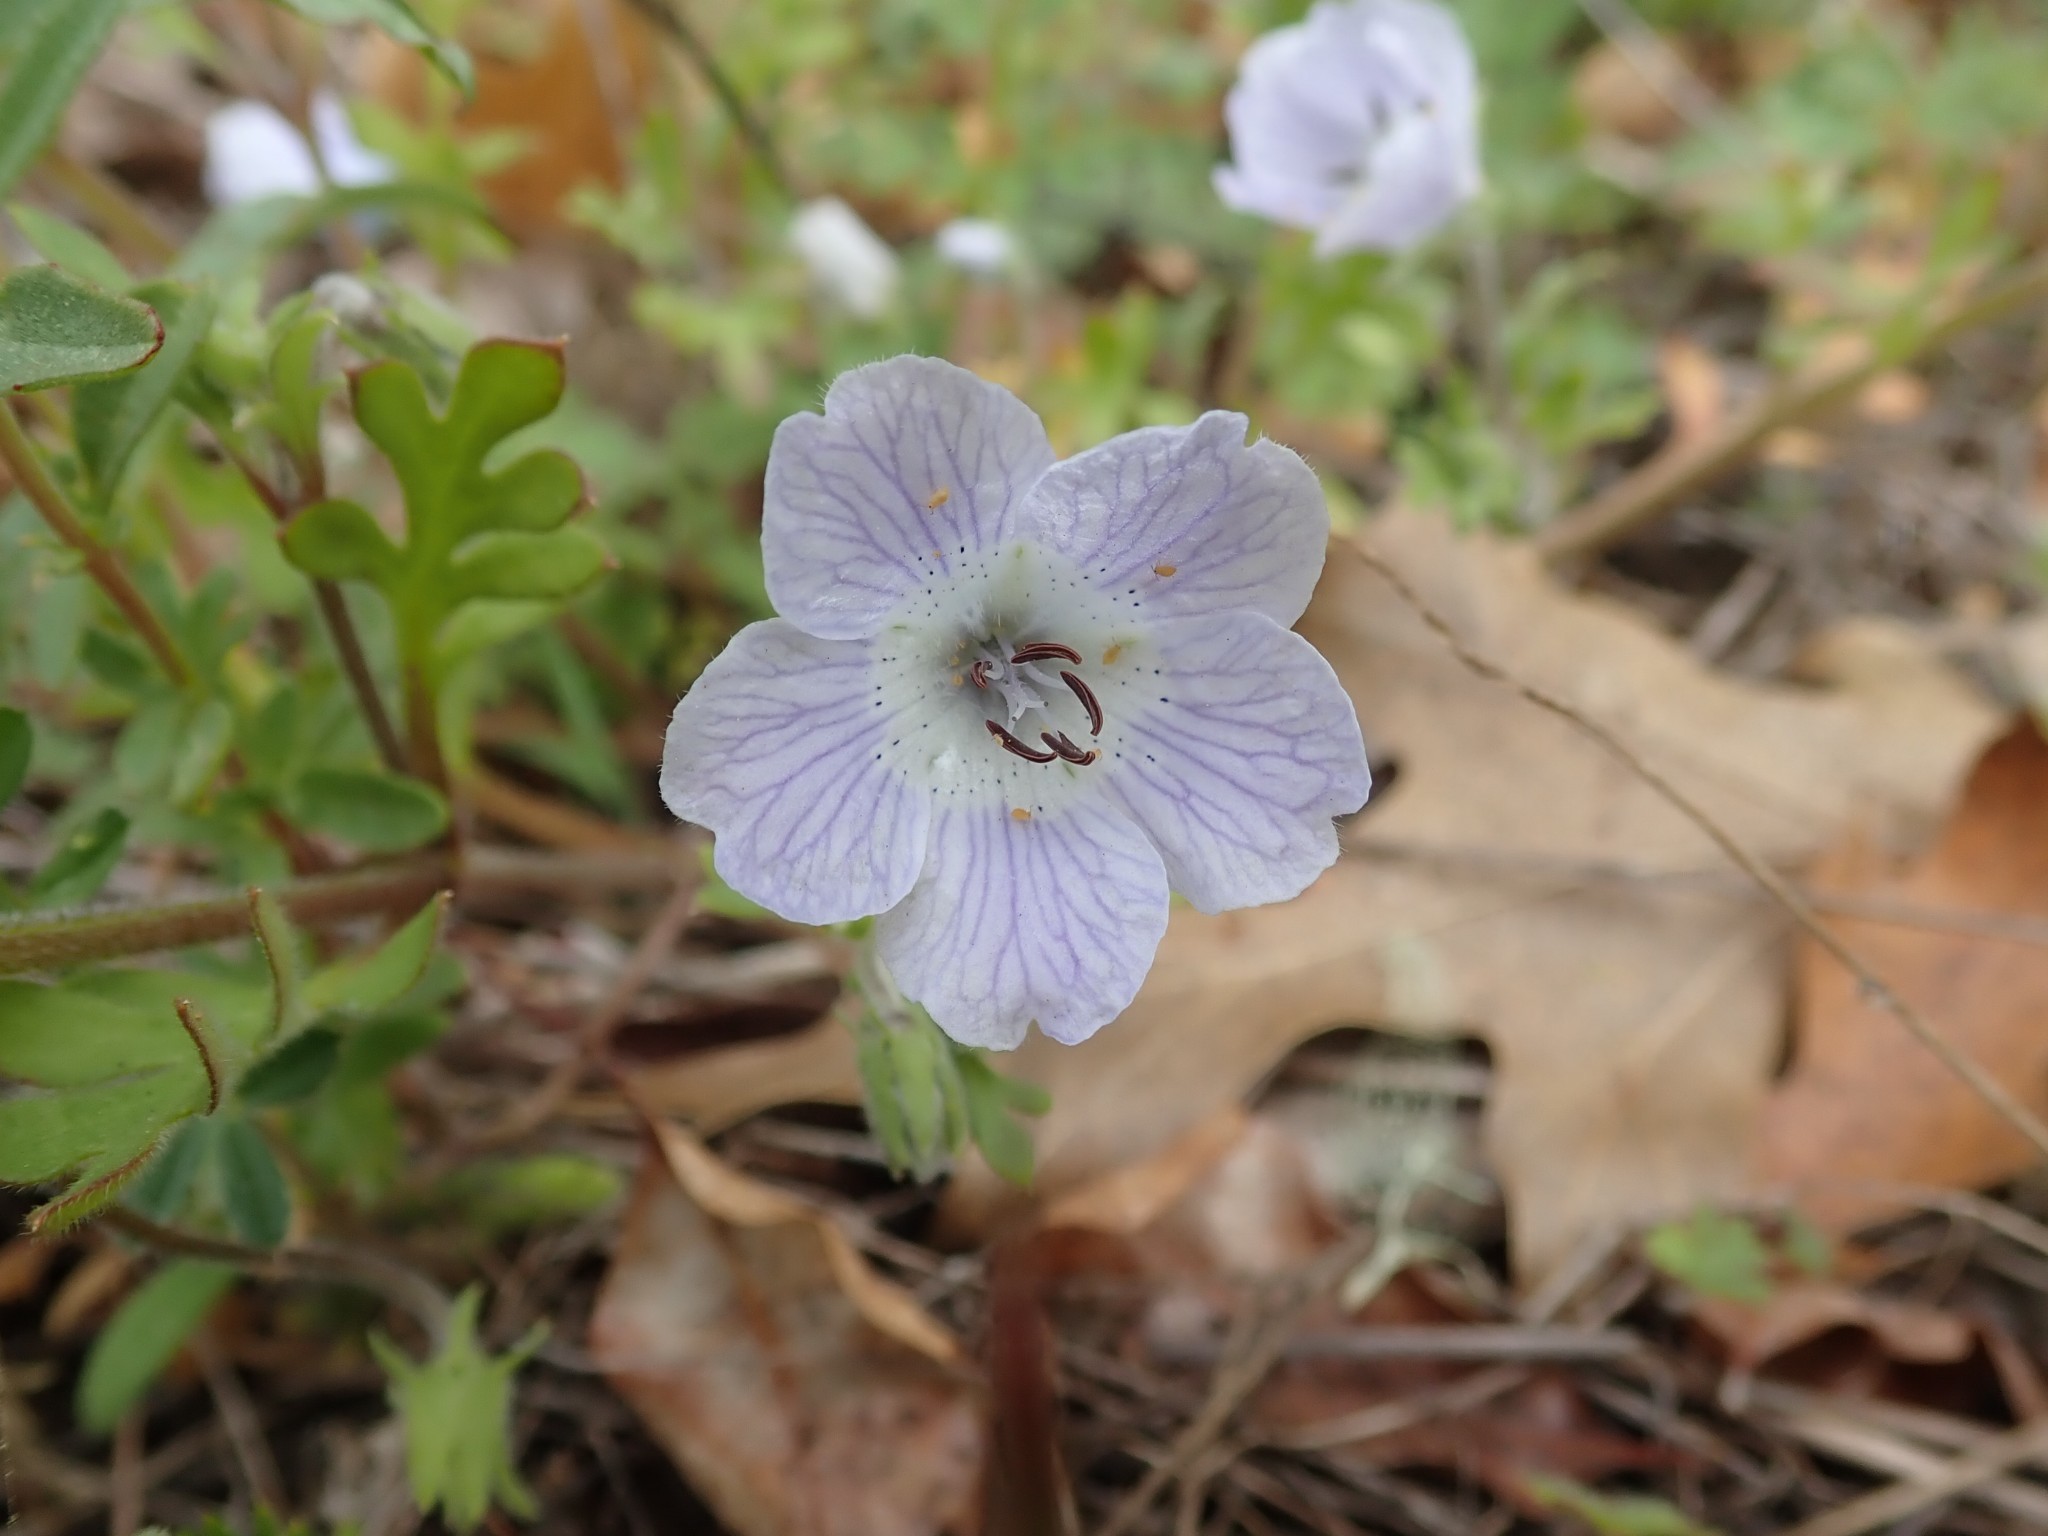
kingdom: Plantae
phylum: Tracheophyta
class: Magnoliopsida
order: Boraginales
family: Hydrophyllaceae
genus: Nemophila
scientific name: Nemophila menziesii
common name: Baby's-blue-eyes
